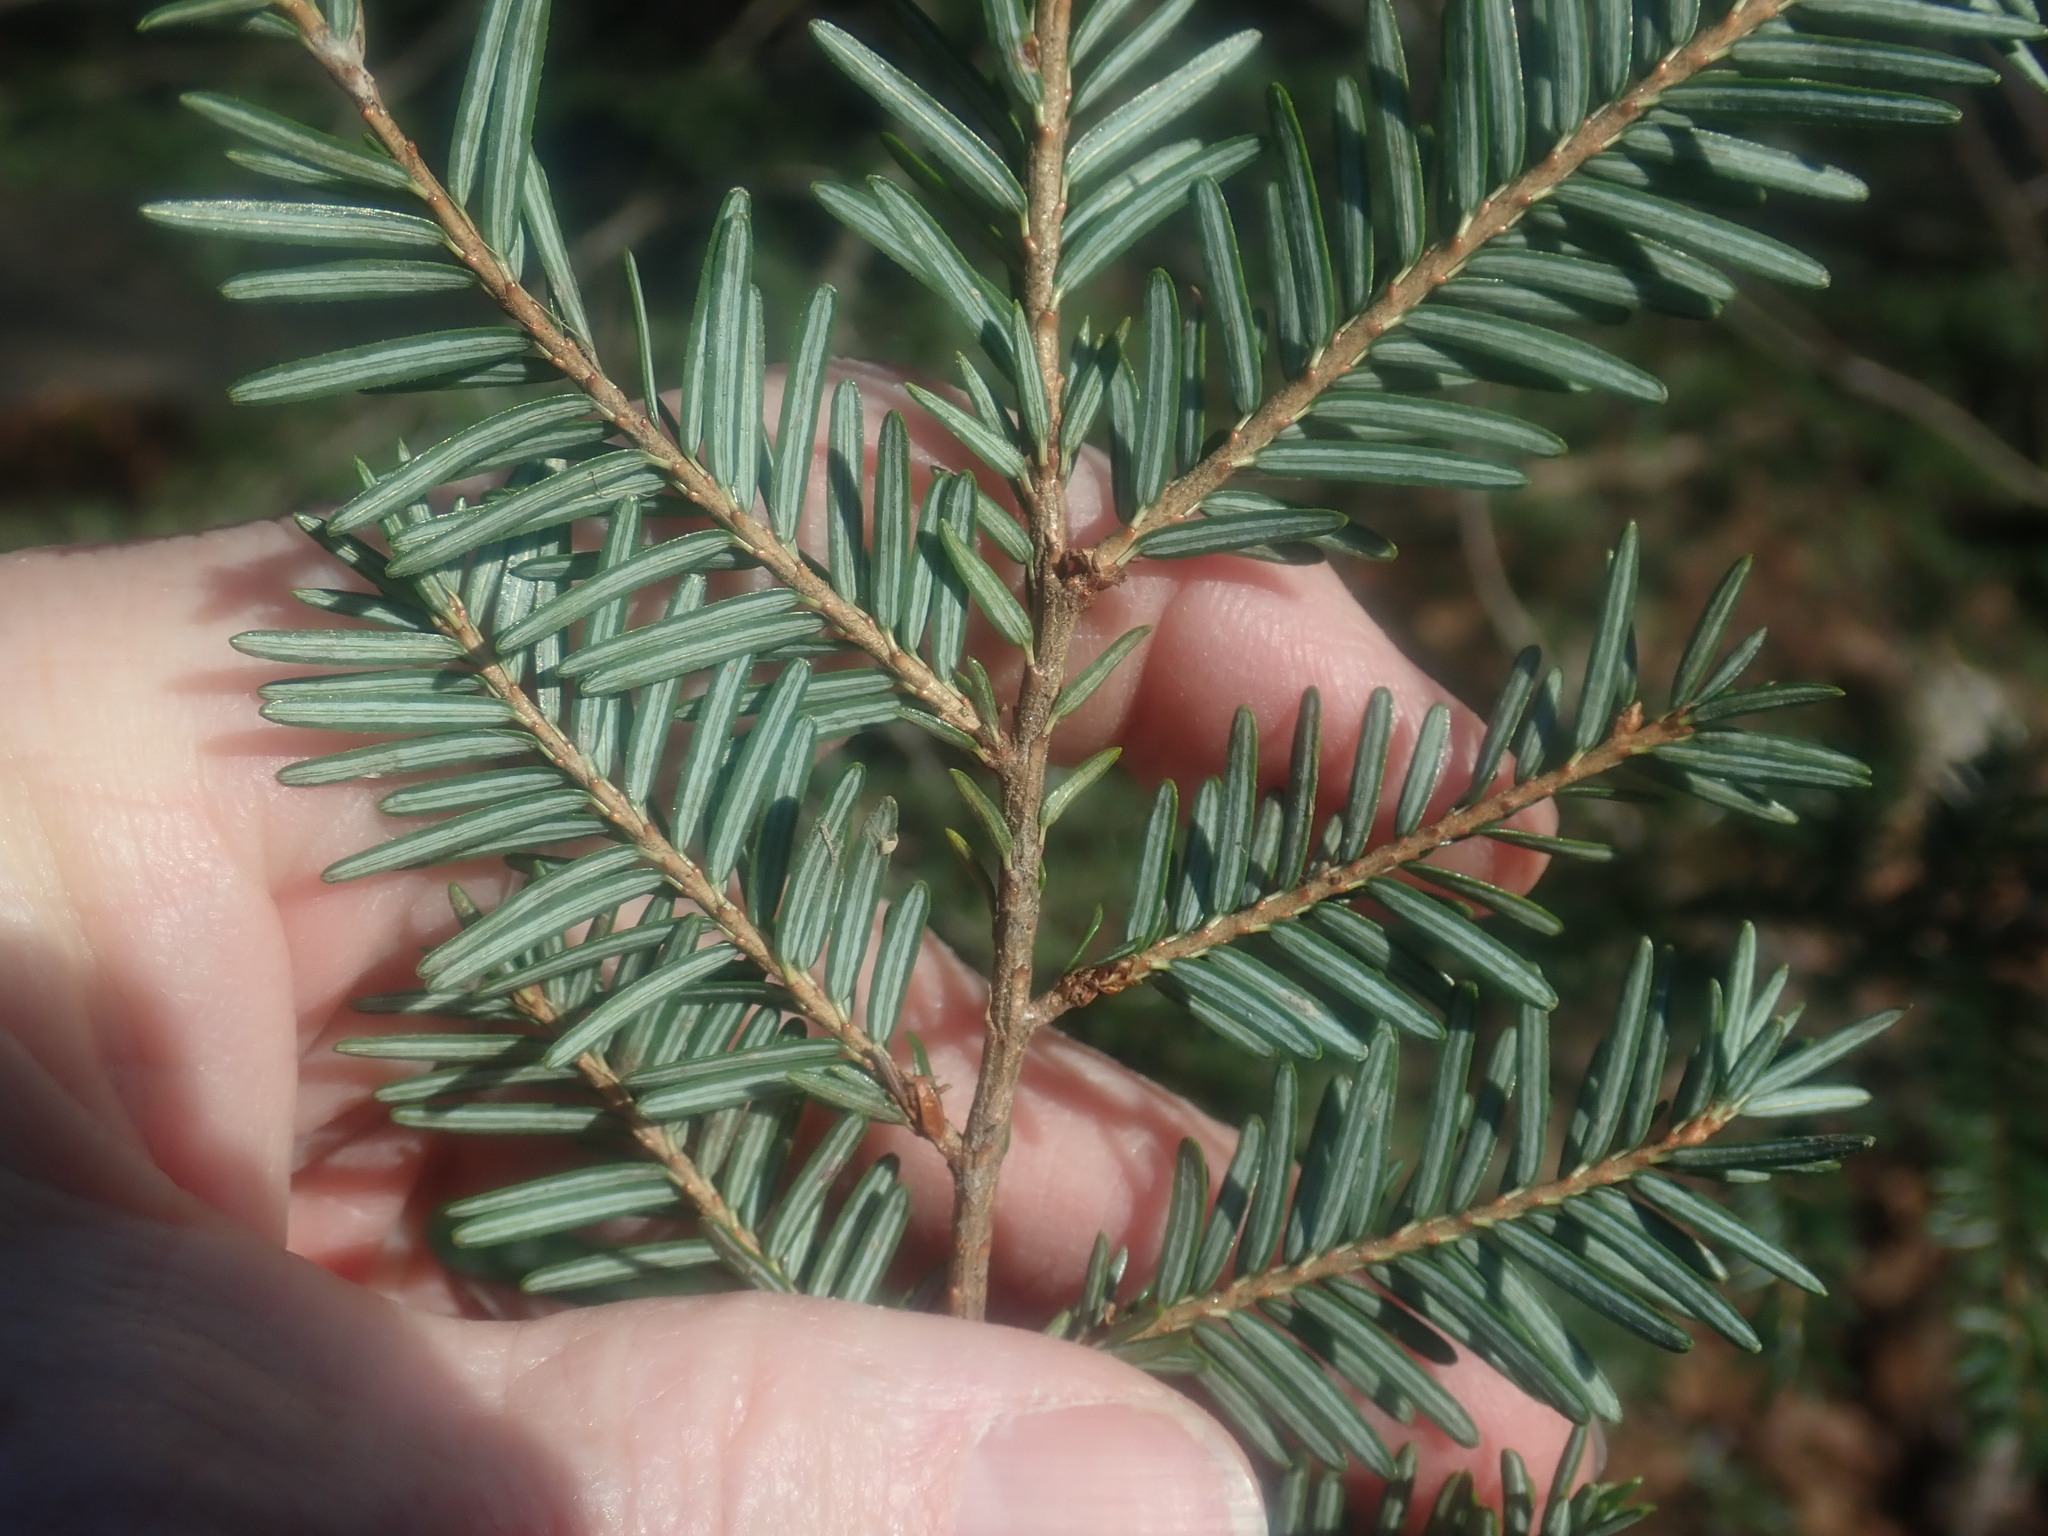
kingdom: Plantae
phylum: Tracheophyta
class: Pinopsida
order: Pinales
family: Pinaceae
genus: Tsuga
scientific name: Tsuga canadensis
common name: Eastern hemlock
